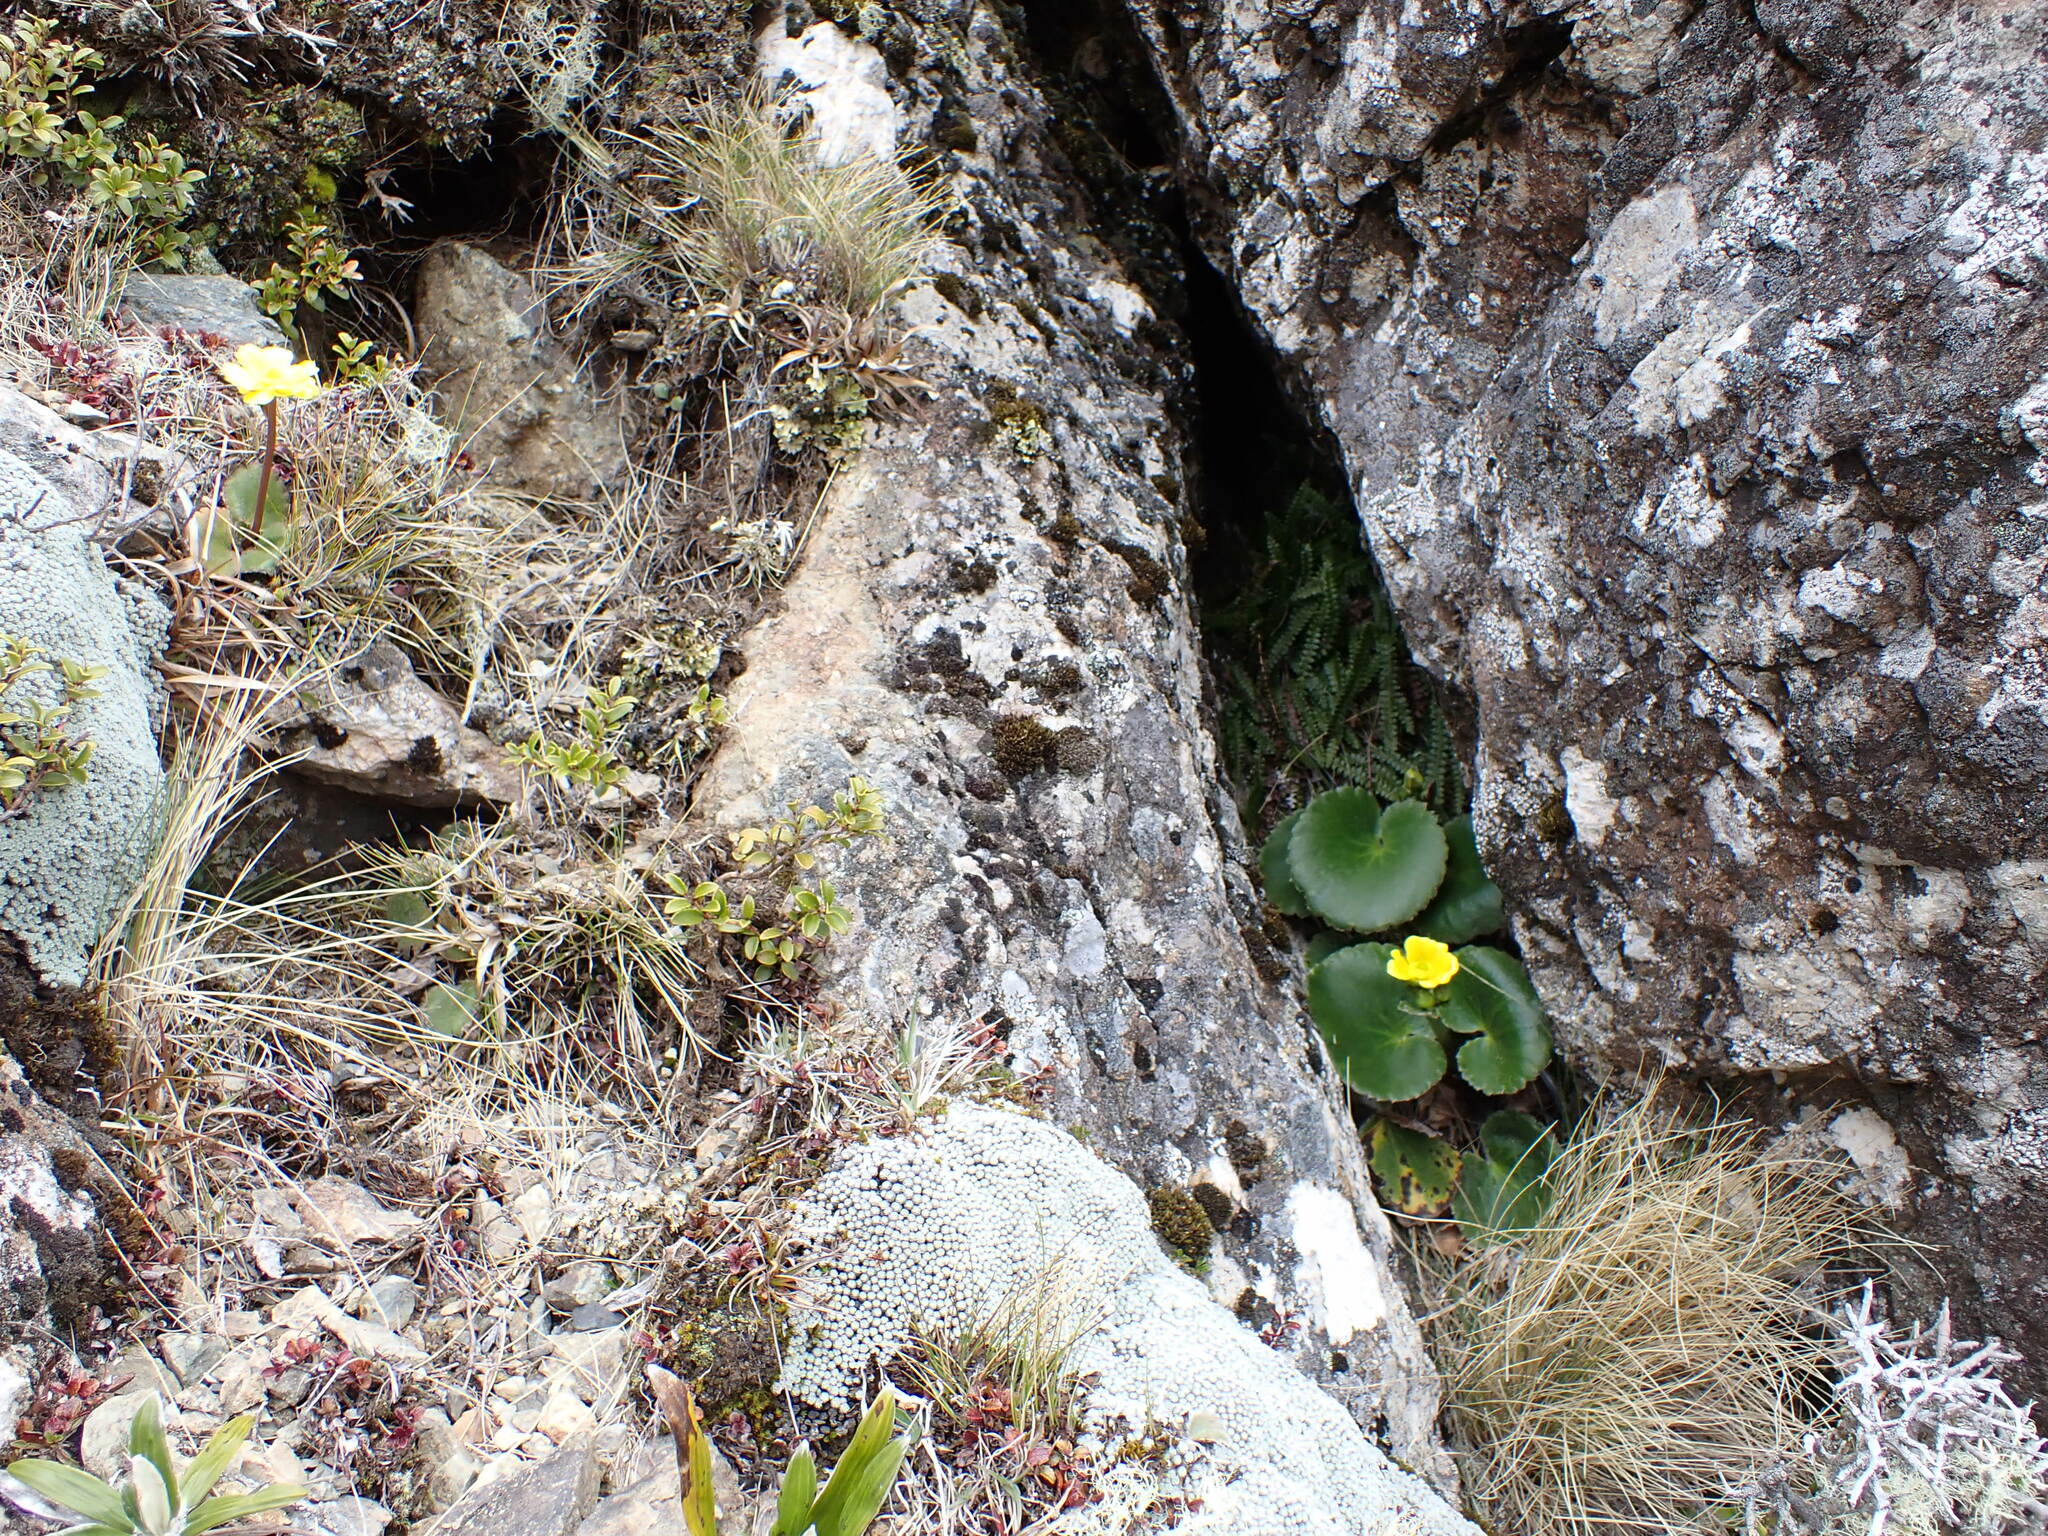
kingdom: Plantae
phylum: Tracheophyta
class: Magnoliopsida
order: Ranunculales
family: Ranunculaceae
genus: Ranunculus
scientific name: Ranunculus insignis
